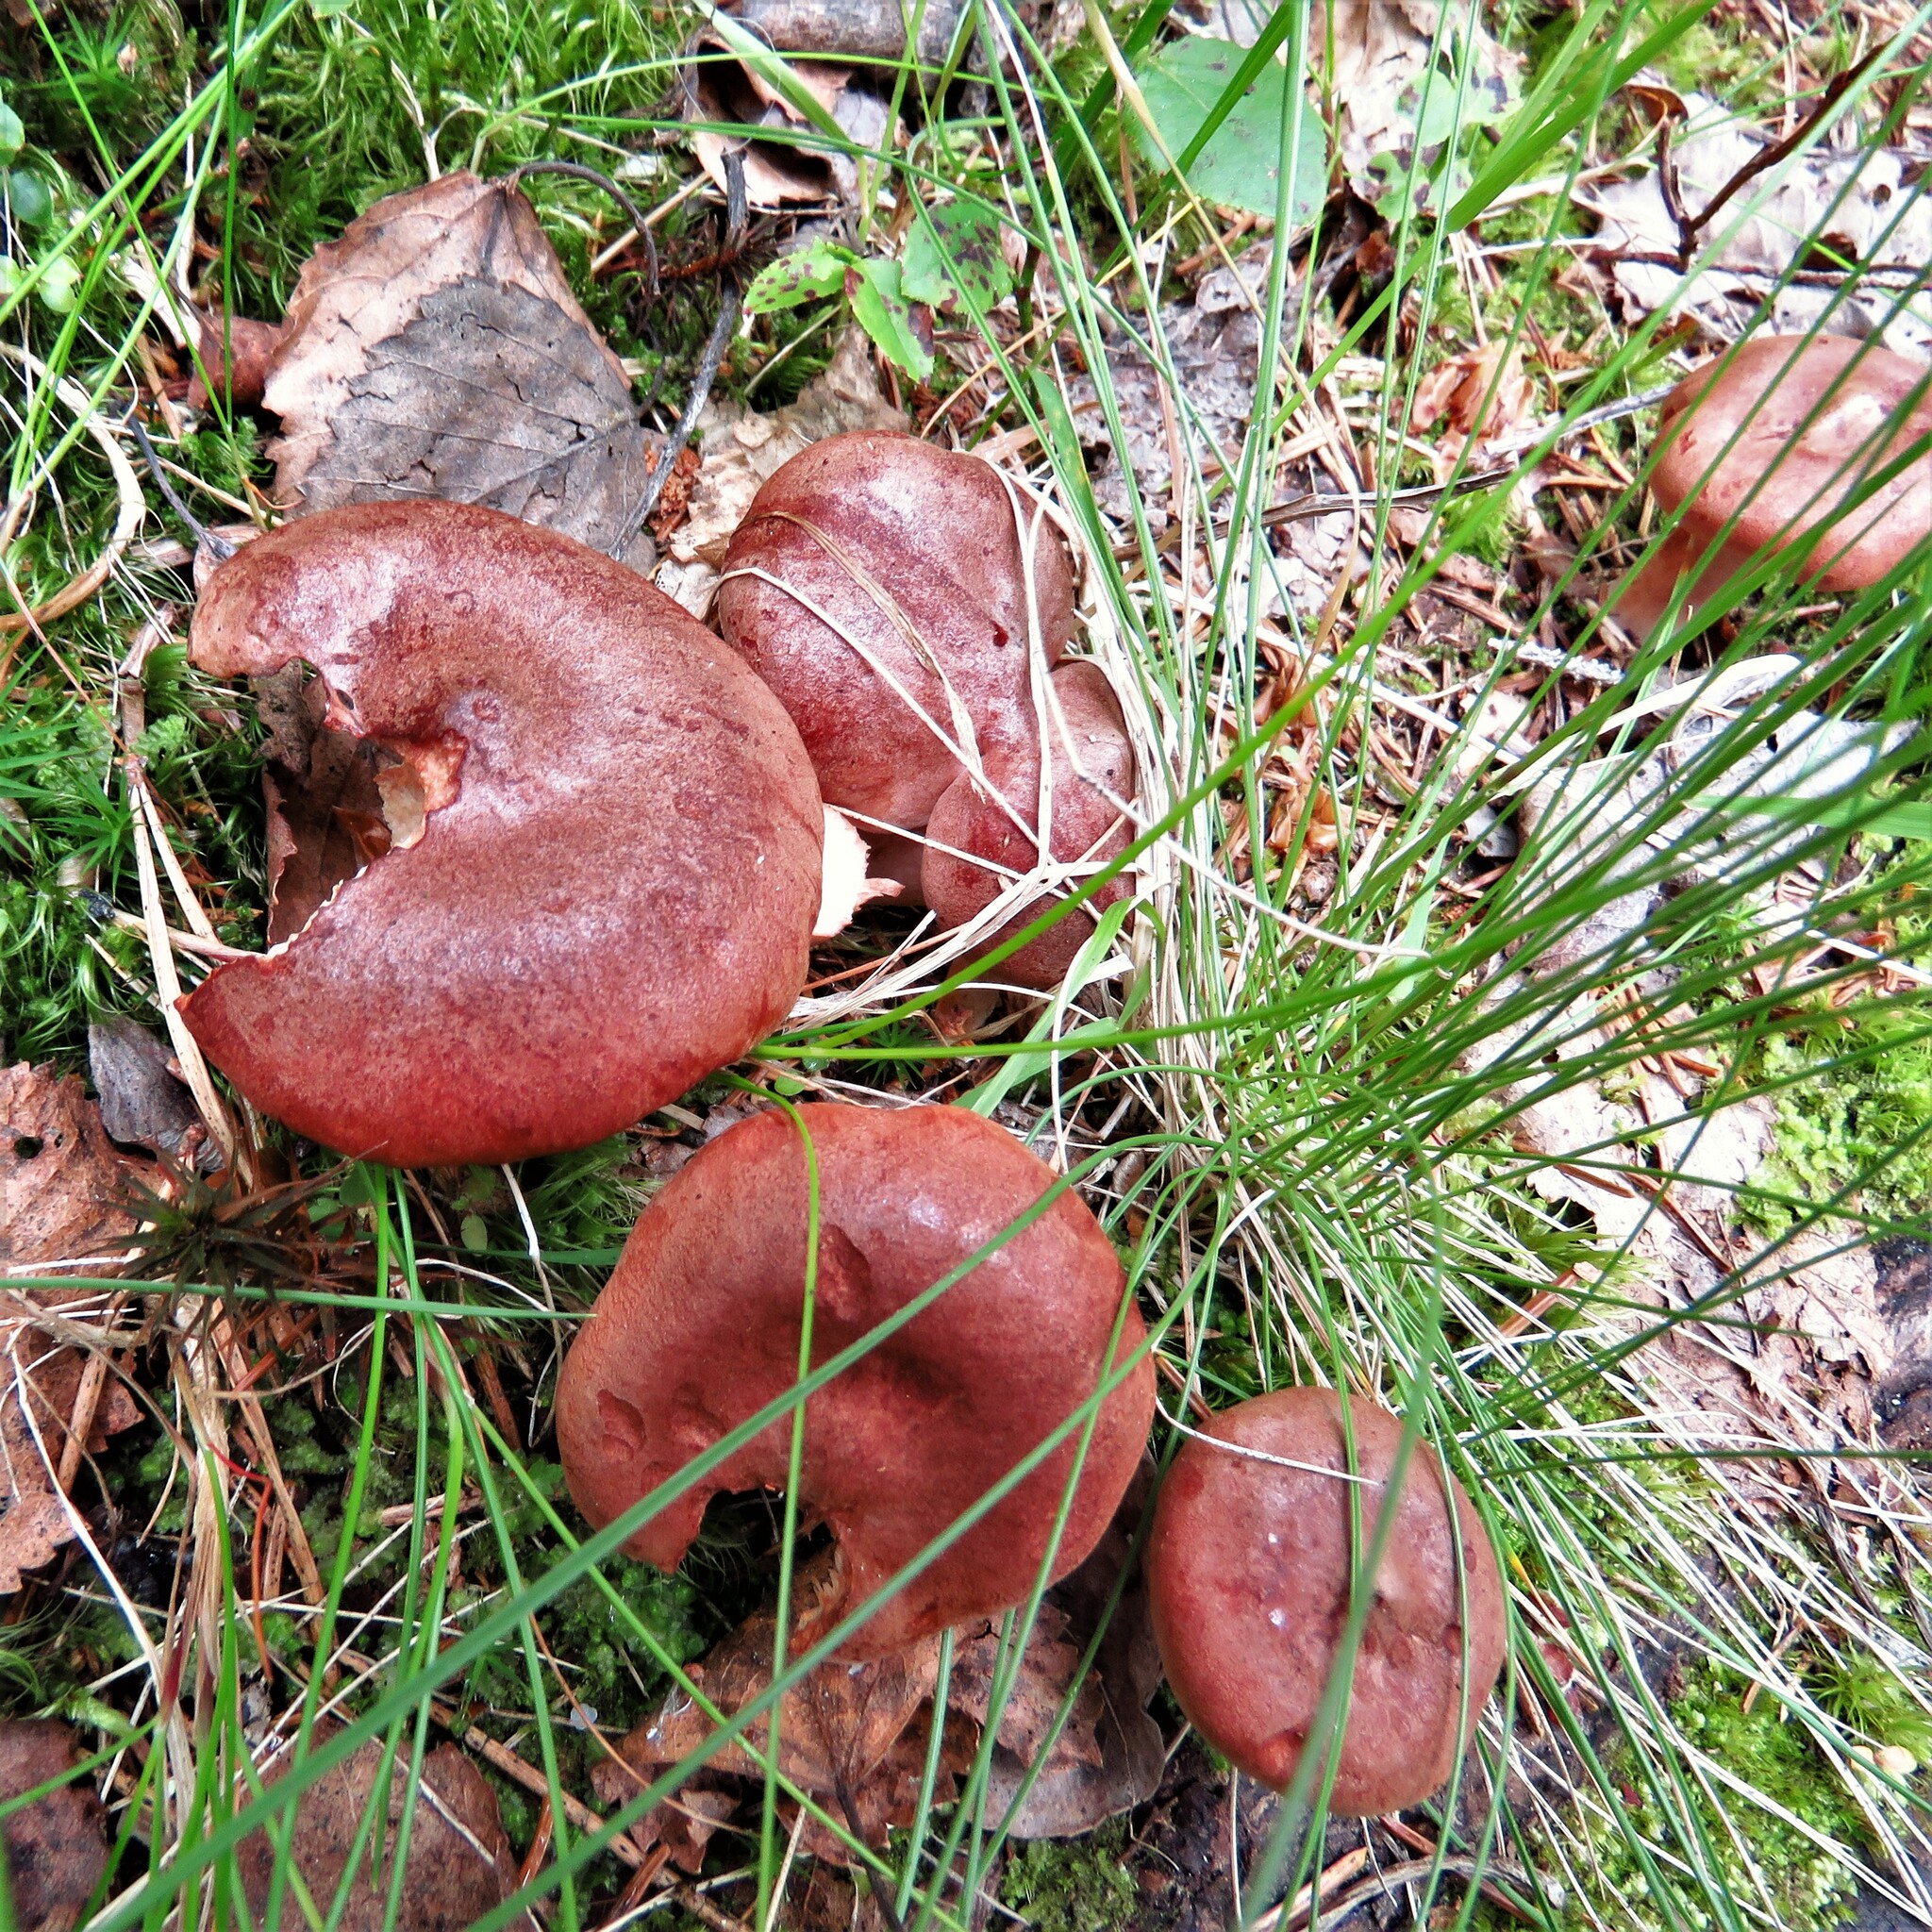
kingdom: Fungi
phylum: Basidiomycota
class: Agaricomycetes
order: Russulales
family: Russulaceae
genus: Lactarius
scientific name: Lactarius rufus
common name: Rufous milk-cap
